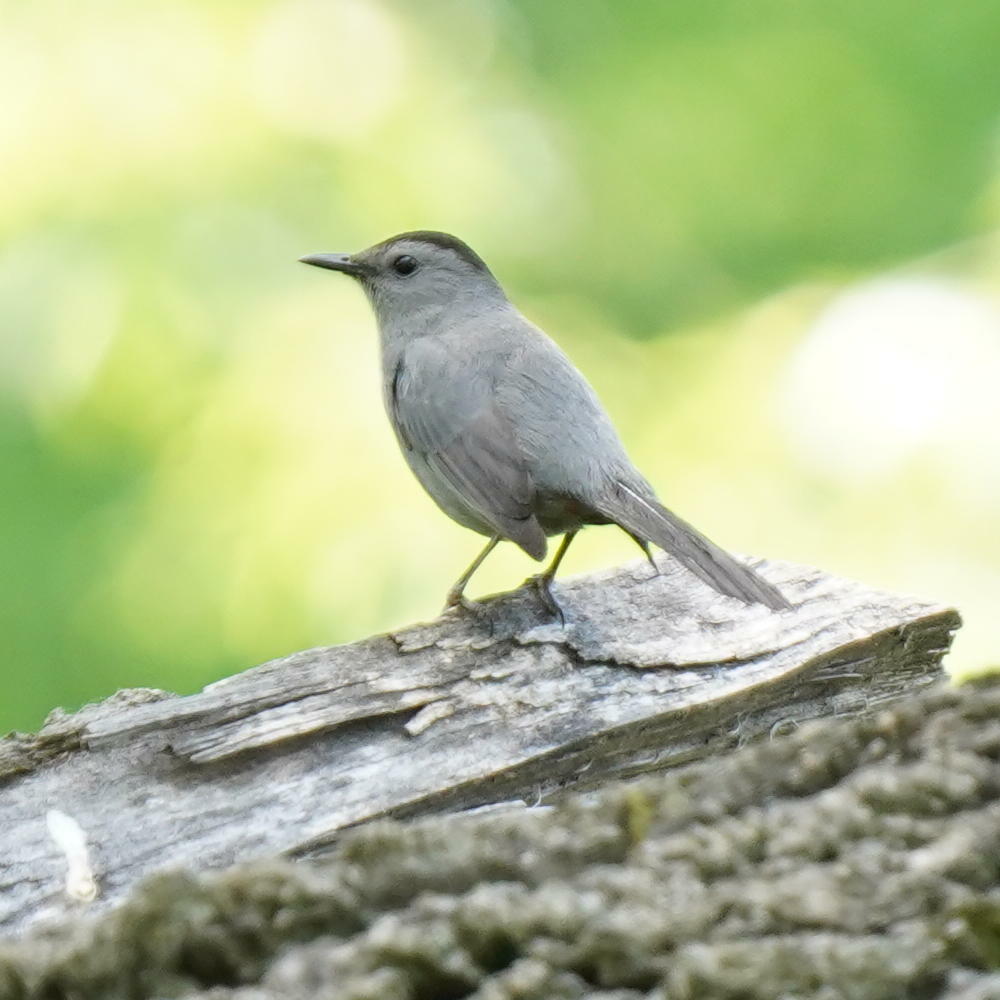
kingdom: Animalia
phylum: Chordata
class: Aves
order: Passeriformes
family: Mimidae
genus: Dumetella
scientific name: Dumetella carolinensis
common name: Gray catbird
